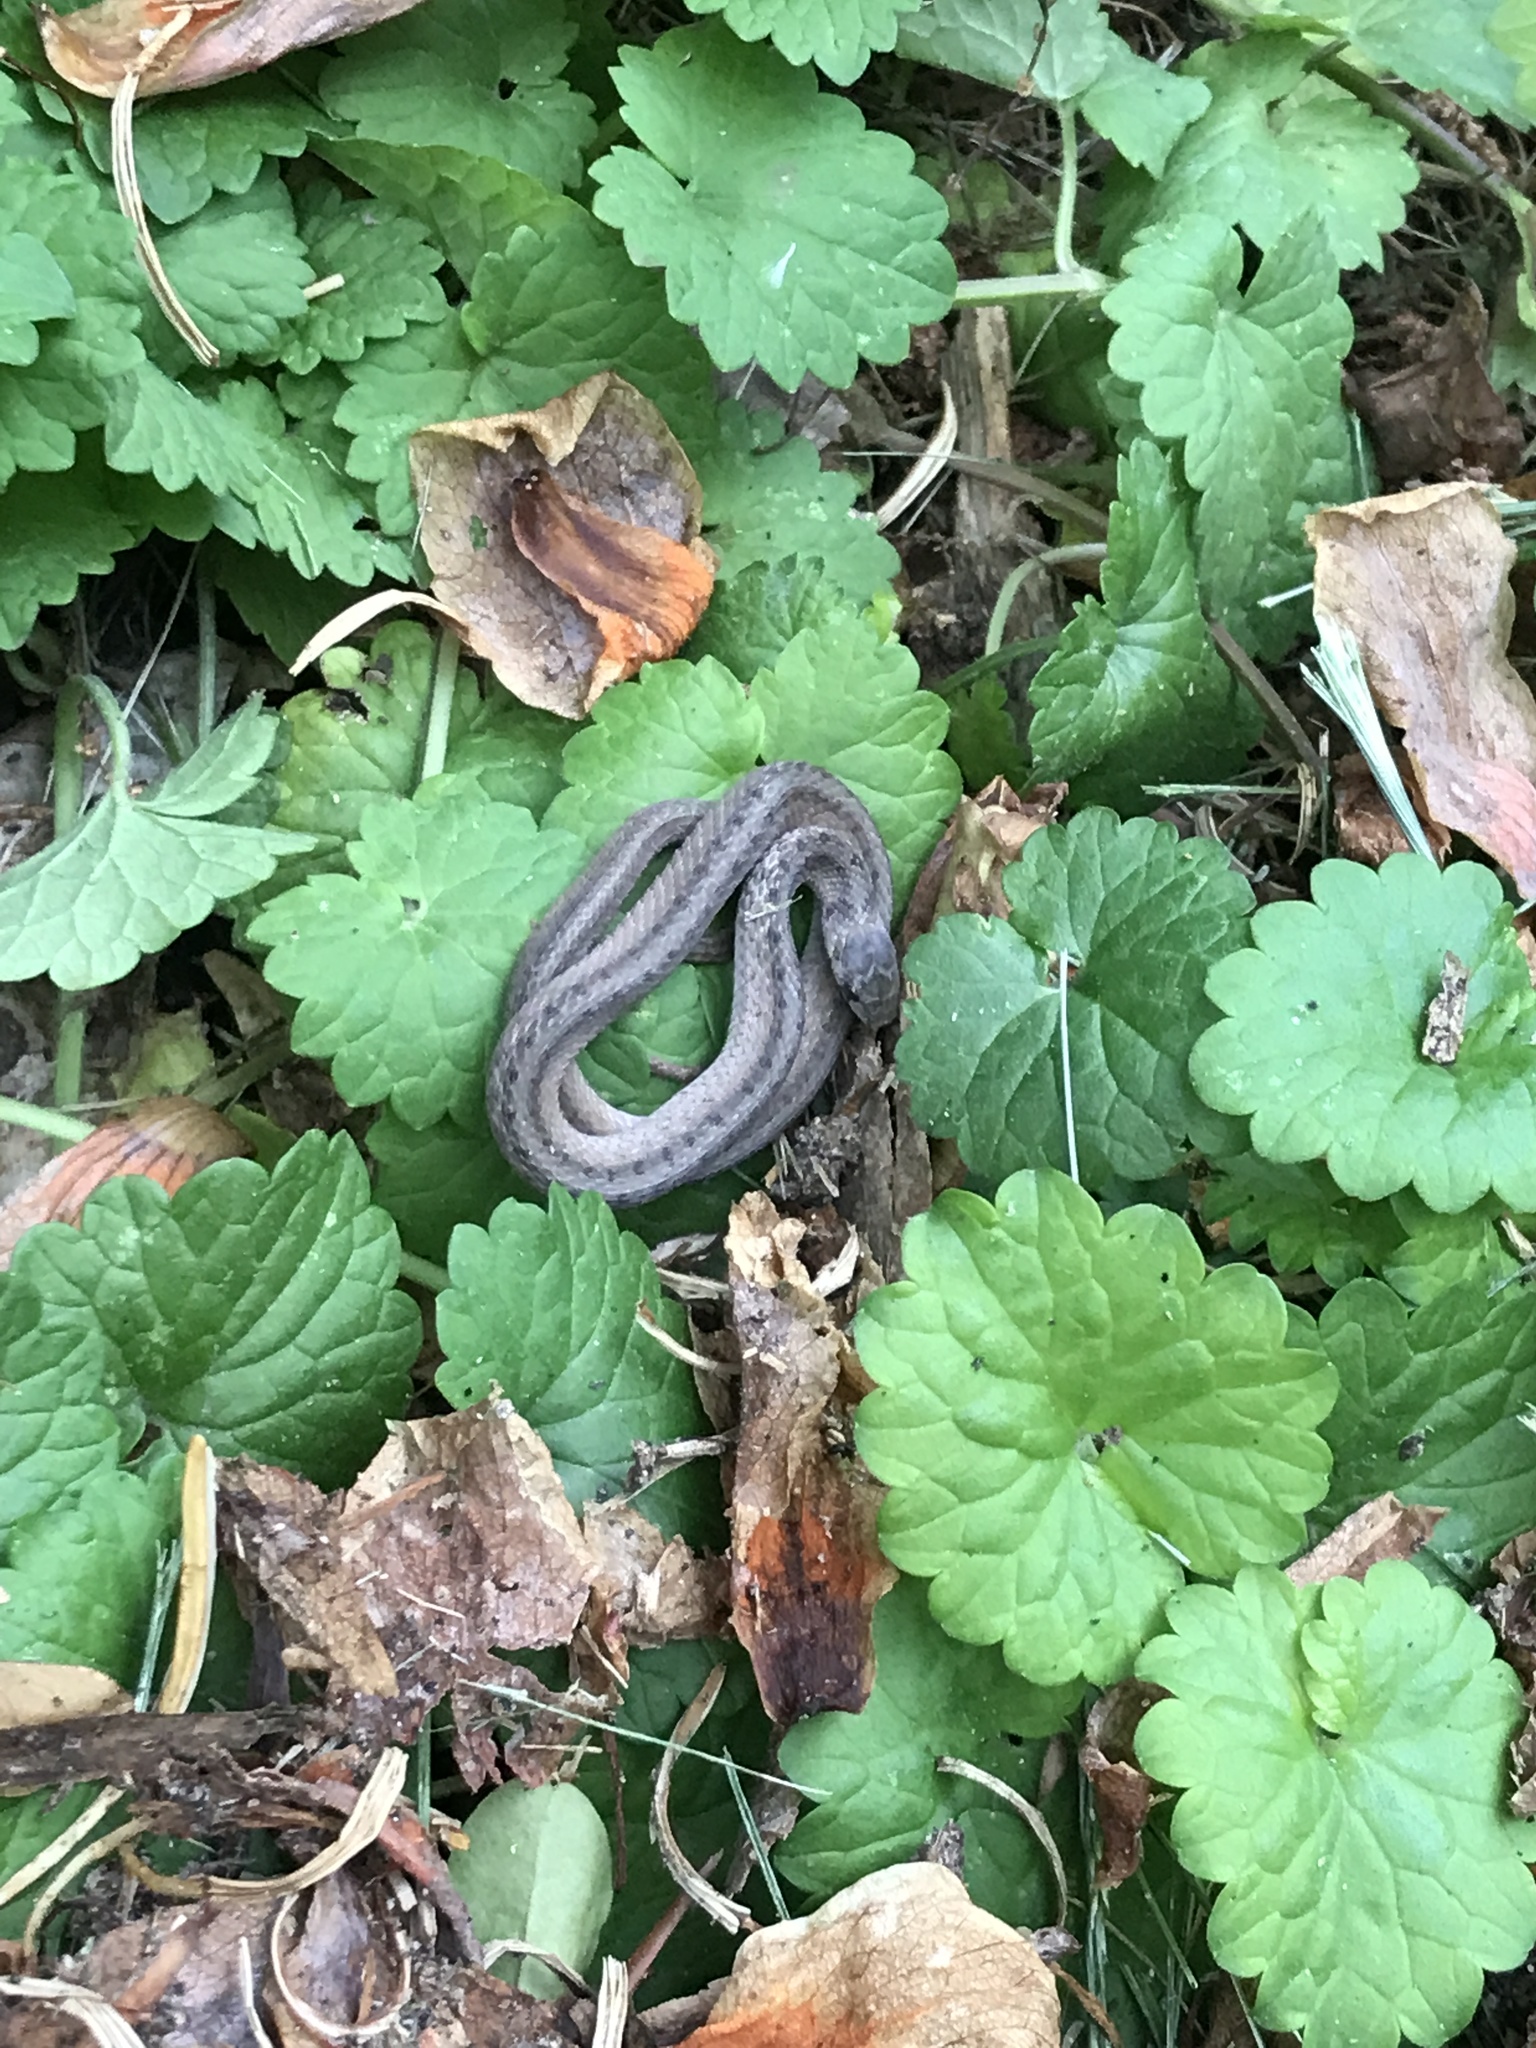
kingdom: Animalia
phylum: Chordata
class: Squamata
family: Colubridae
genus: Storeria
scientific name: Storeria dekayi
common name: (dekay’s) brown snake
